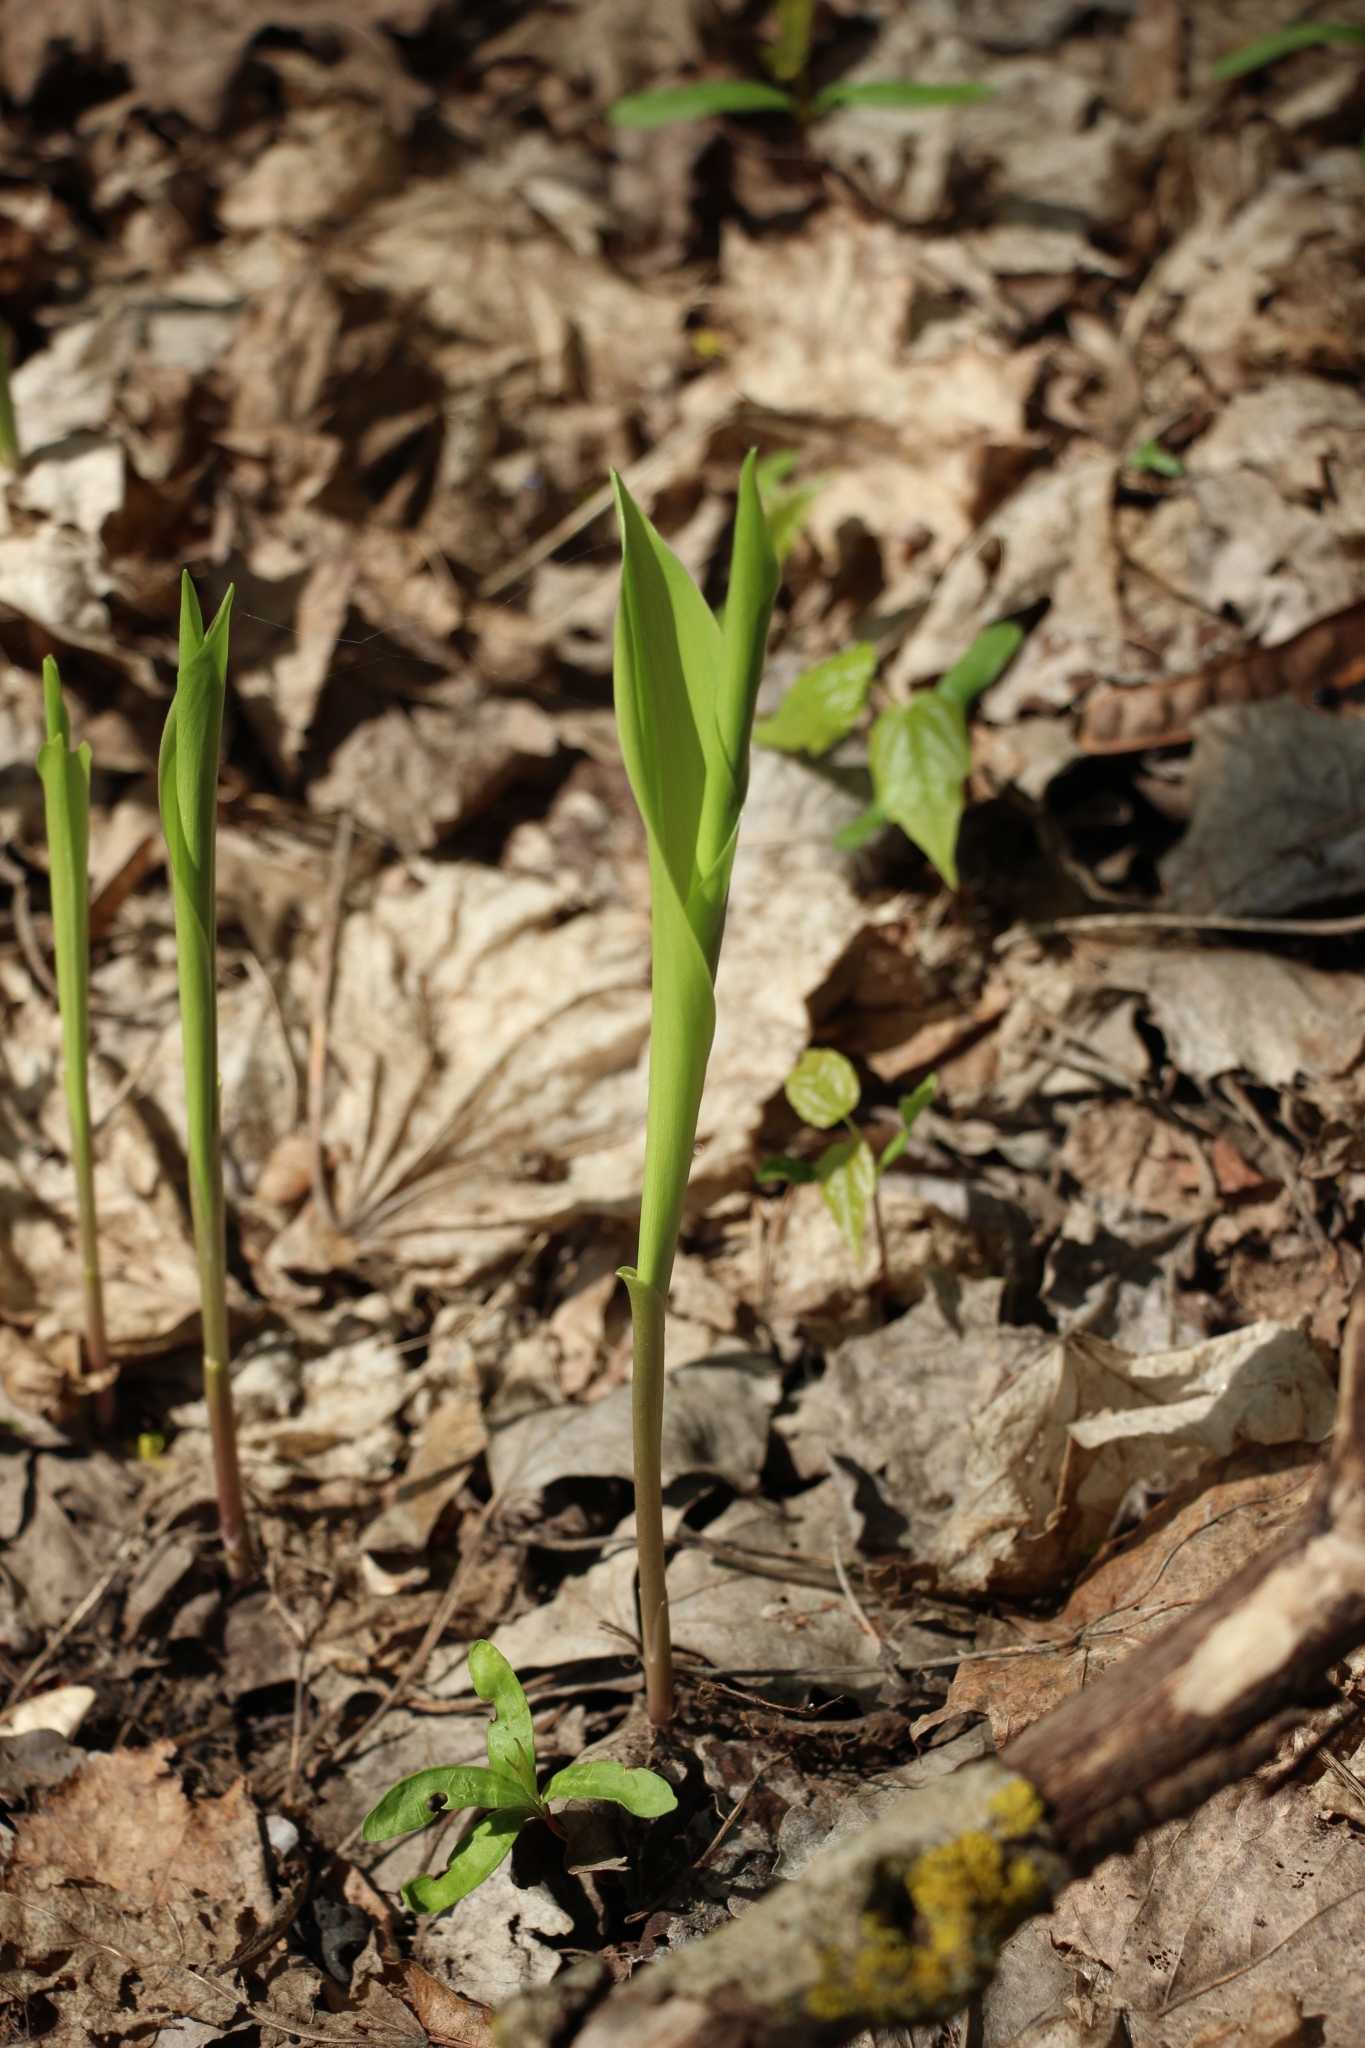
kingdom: Plantae
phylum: Tracheophyta
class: Liliopsida
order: Asparagales
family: Asparagaceae
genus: Convallaria
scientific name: Convallaria majalis
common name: Lily-of-the-valley
